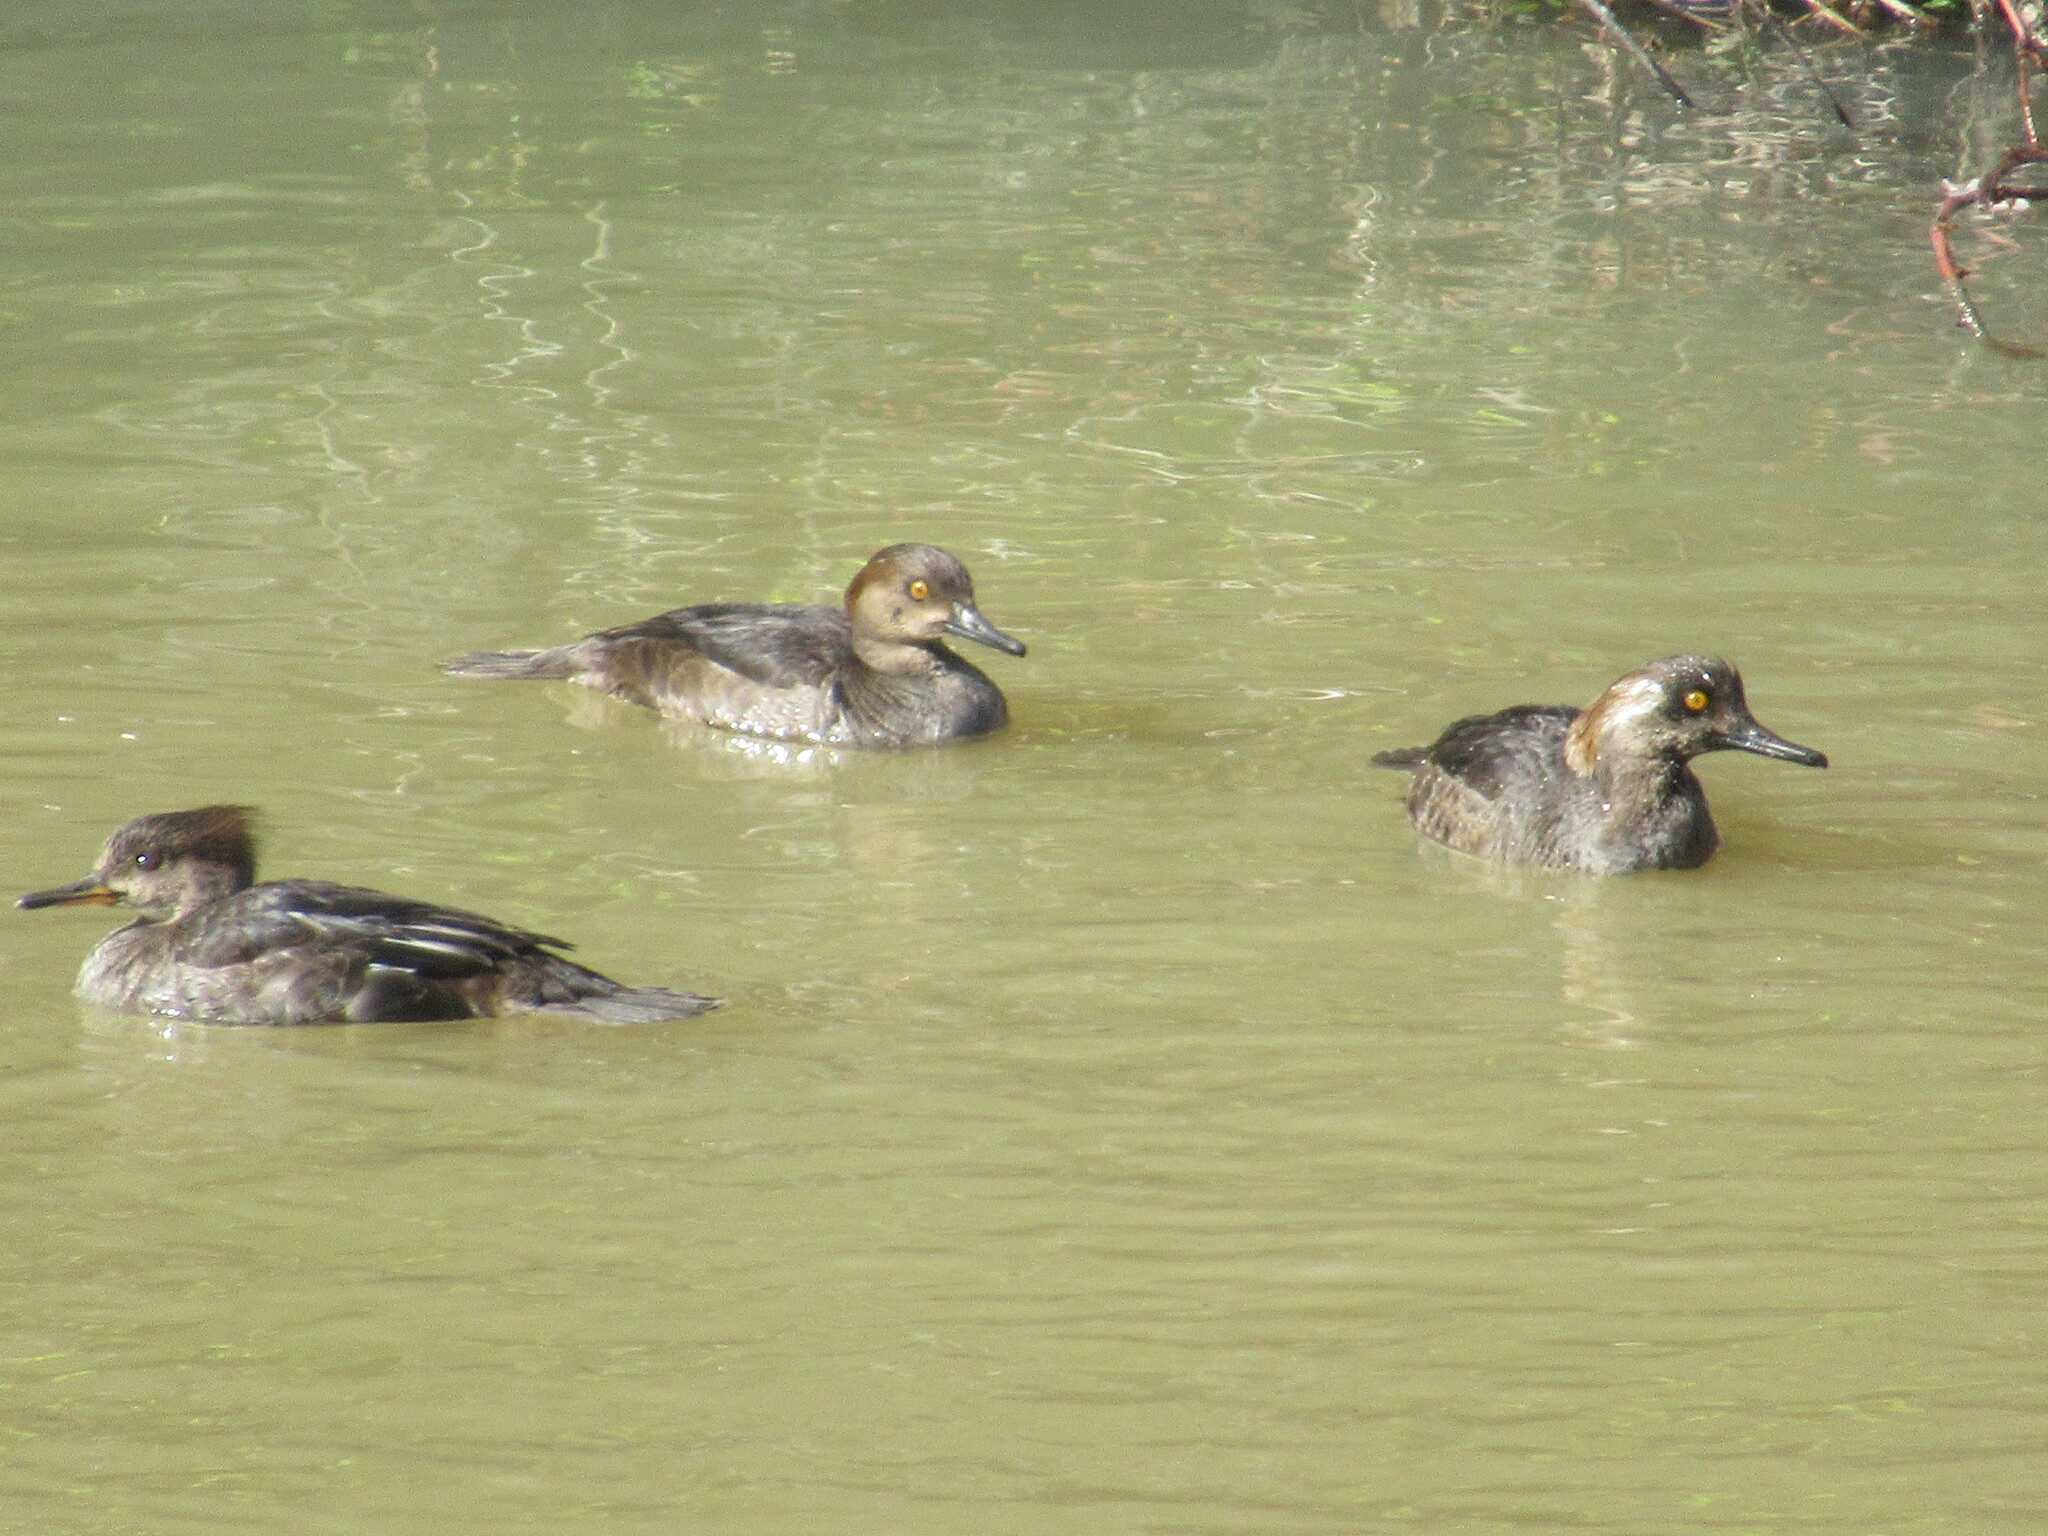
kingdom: Animalia
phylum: Chordata
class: Aves
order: Anseriformes
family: Anatidae
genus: Lophodytes
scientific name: Lophodytes cucullatus
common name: Hooded merganser
